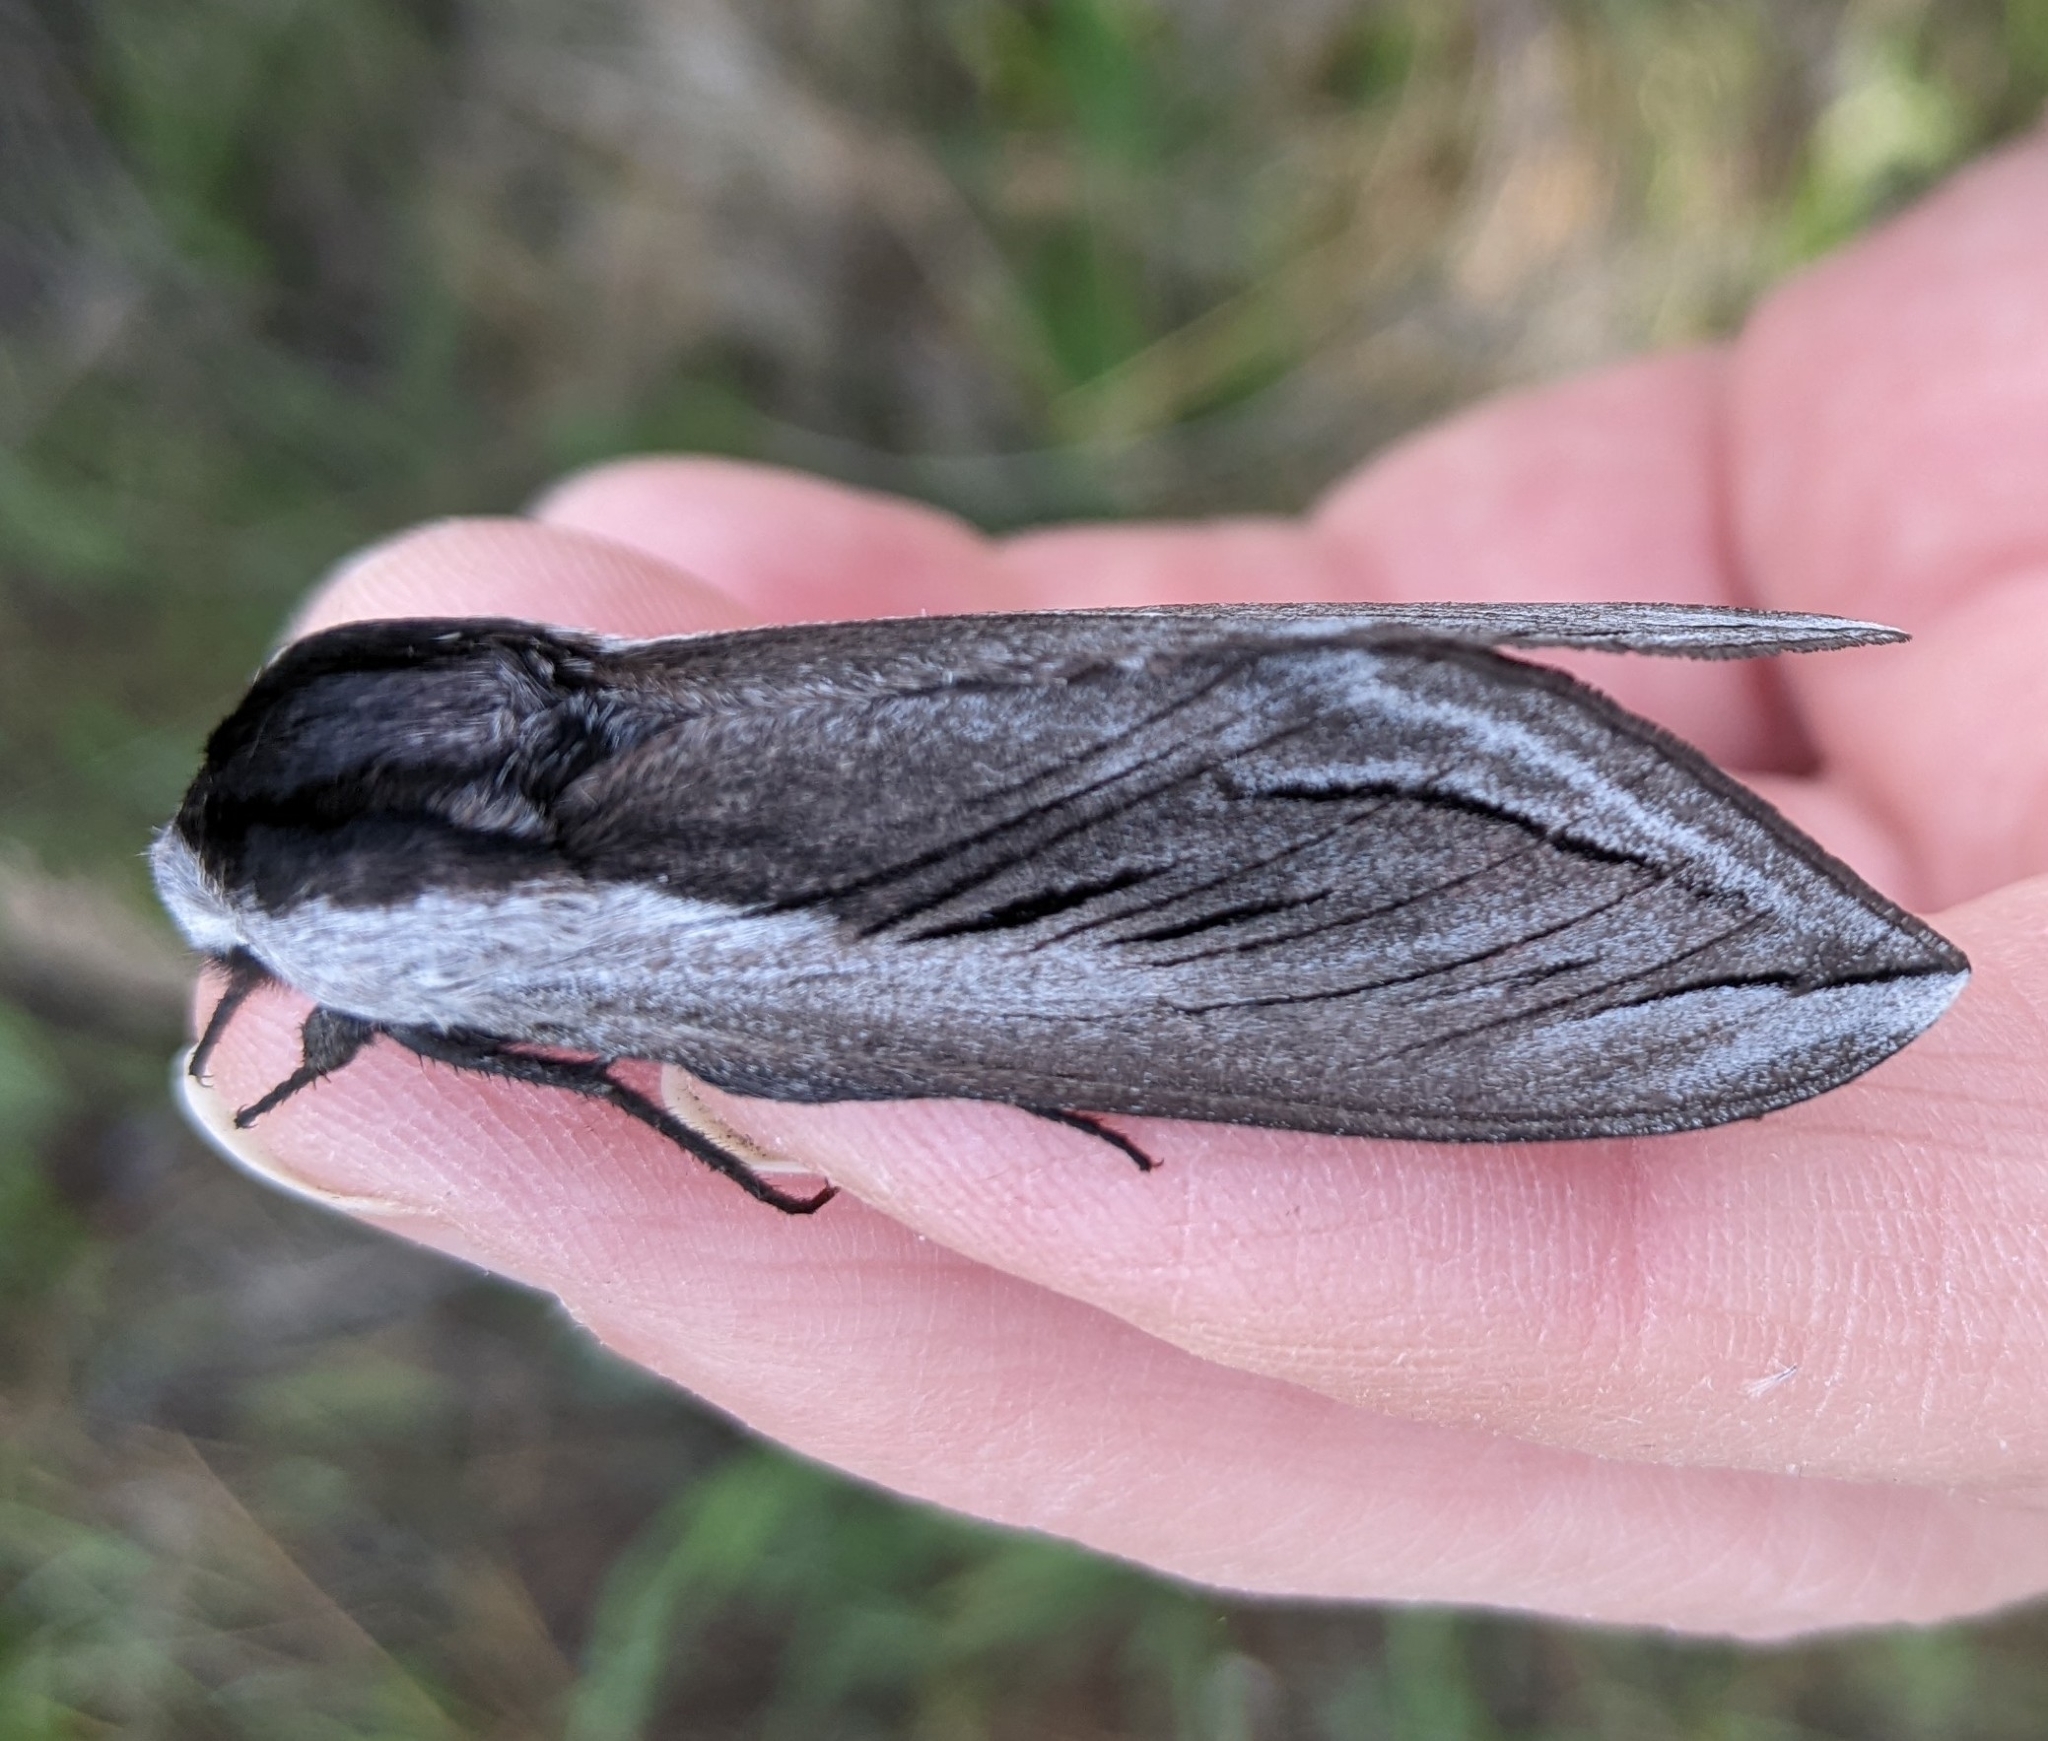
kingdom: Animalia
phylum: Arthropoda
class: Insecta
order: Lepidoptera
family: Sphingidae
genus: Sphinx
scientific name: Sphinx vashti
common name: Snowberry sphinx
